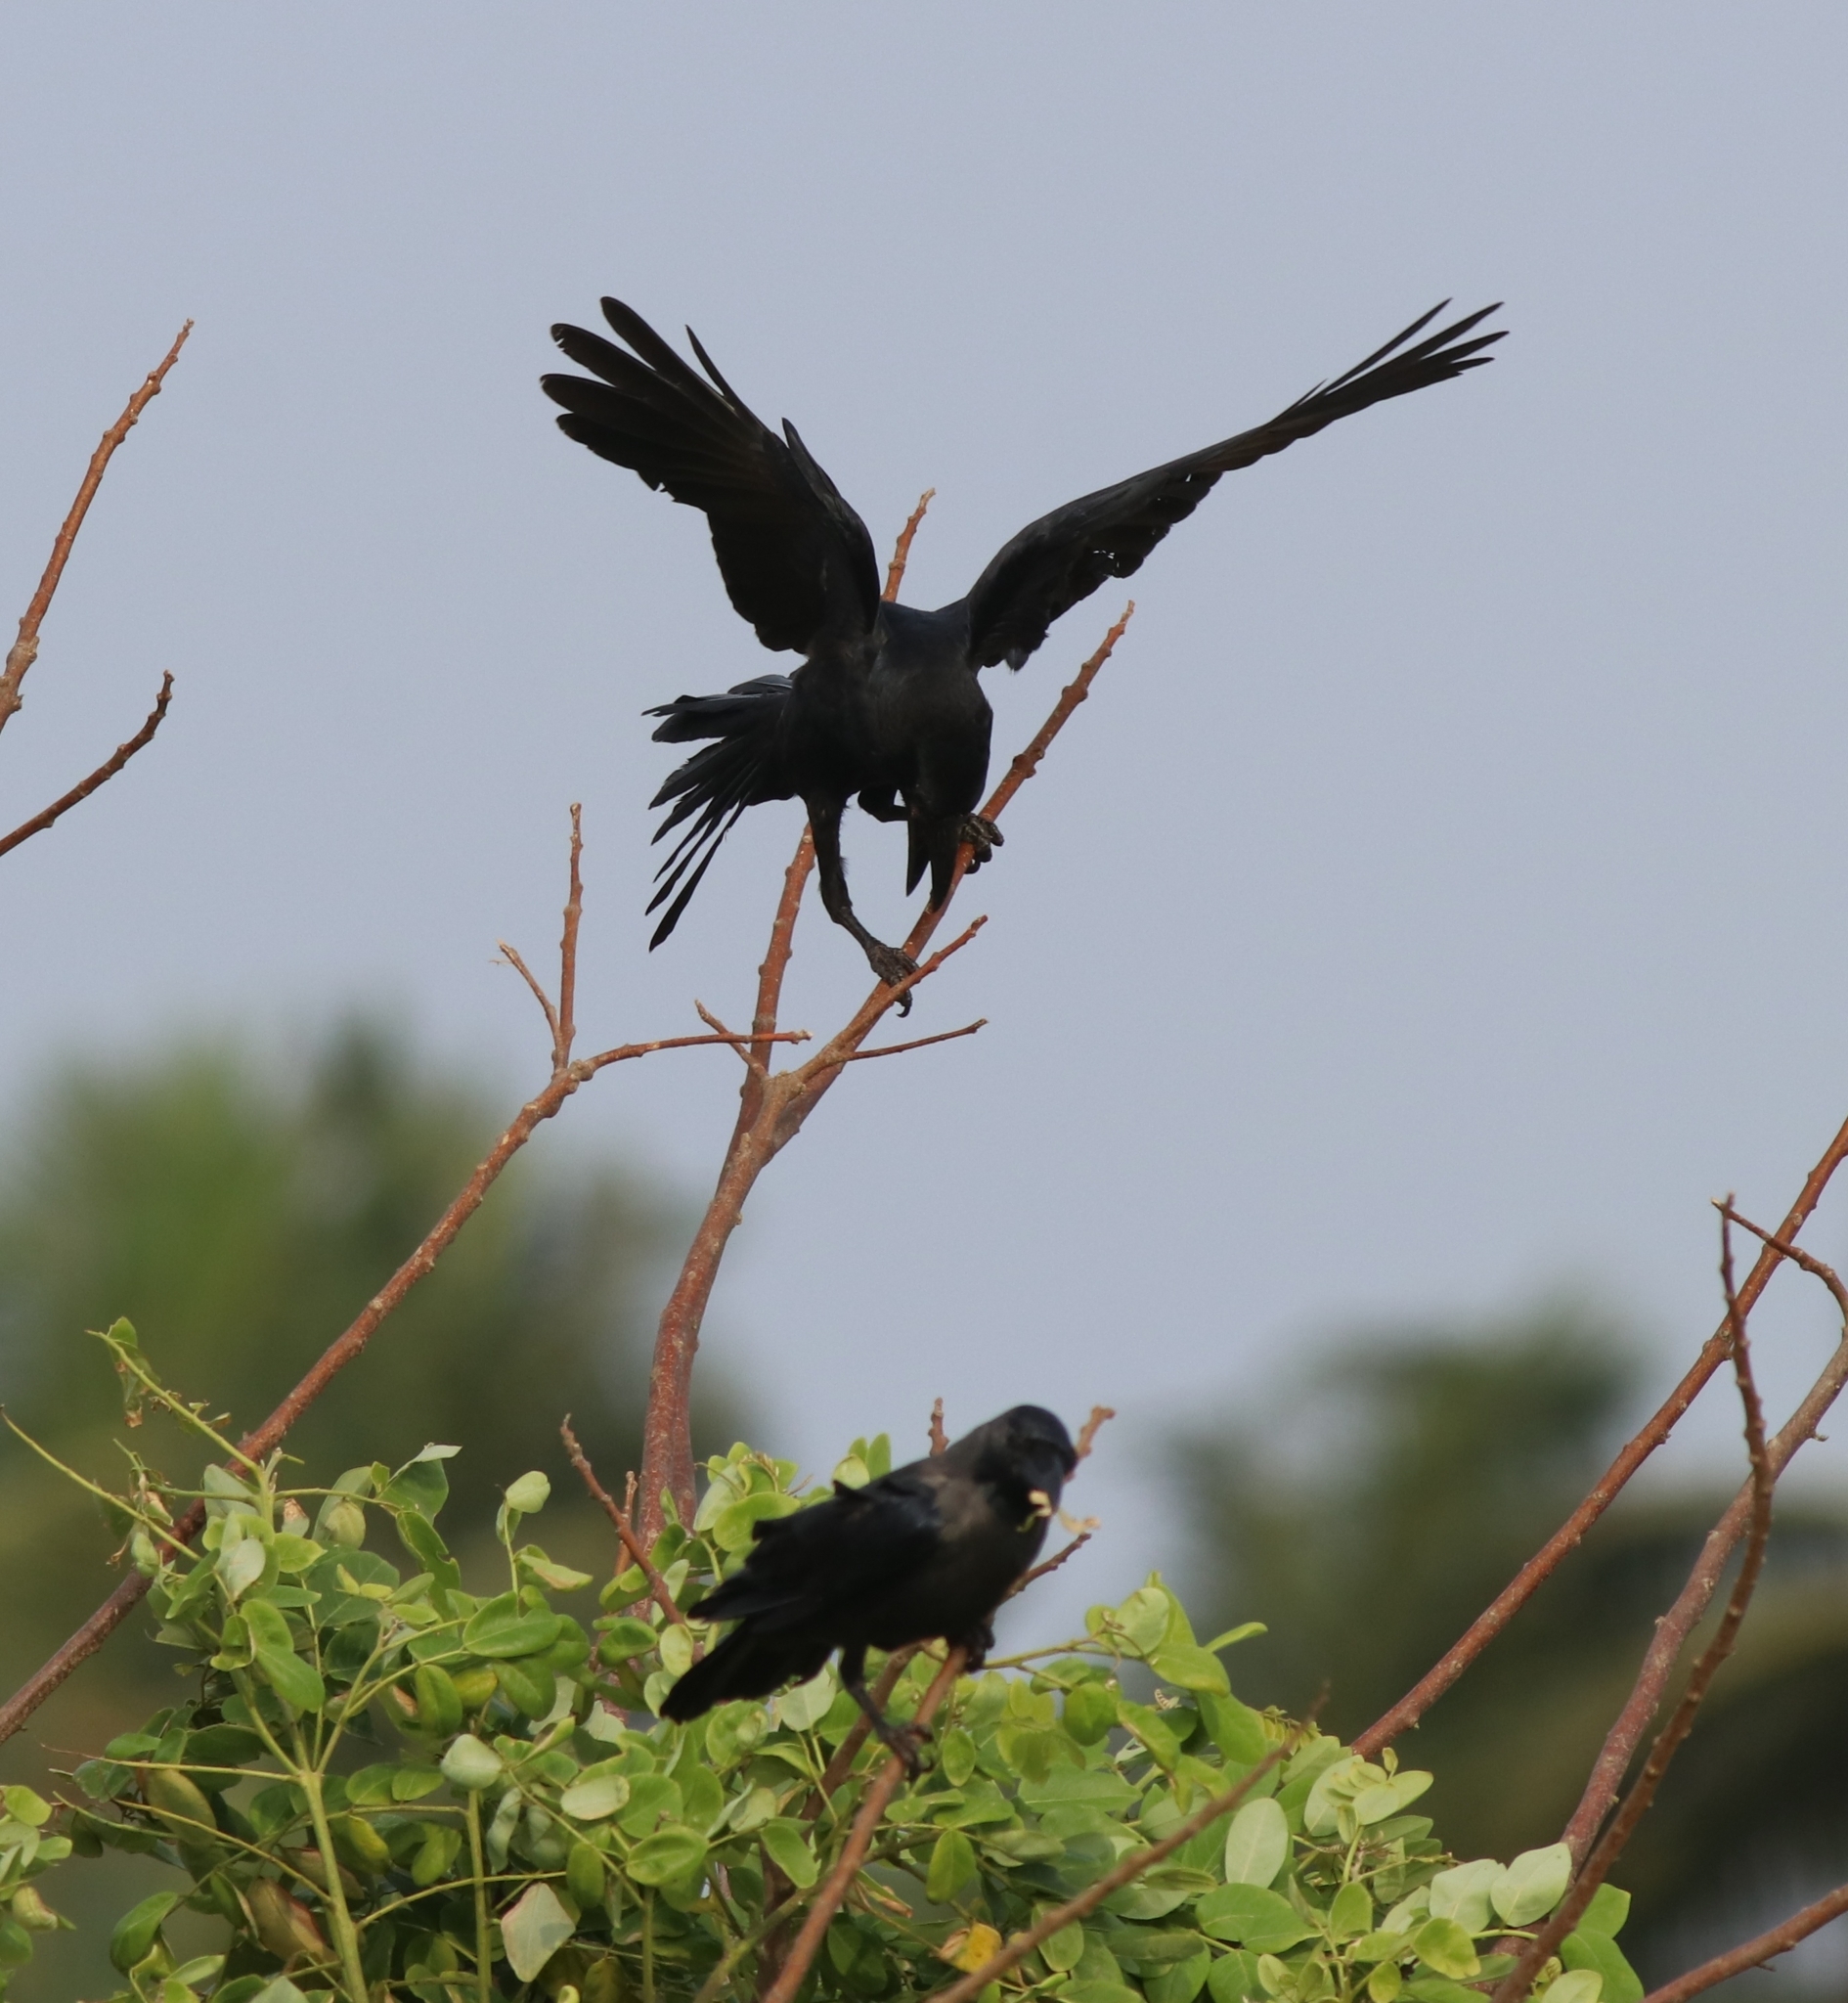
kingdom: Animalia
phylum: Chordata
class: Aves
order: Passeriformes
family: Corvidae
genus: Corvus
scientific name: Corvus macrorhynchos
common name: Large-billed crow
